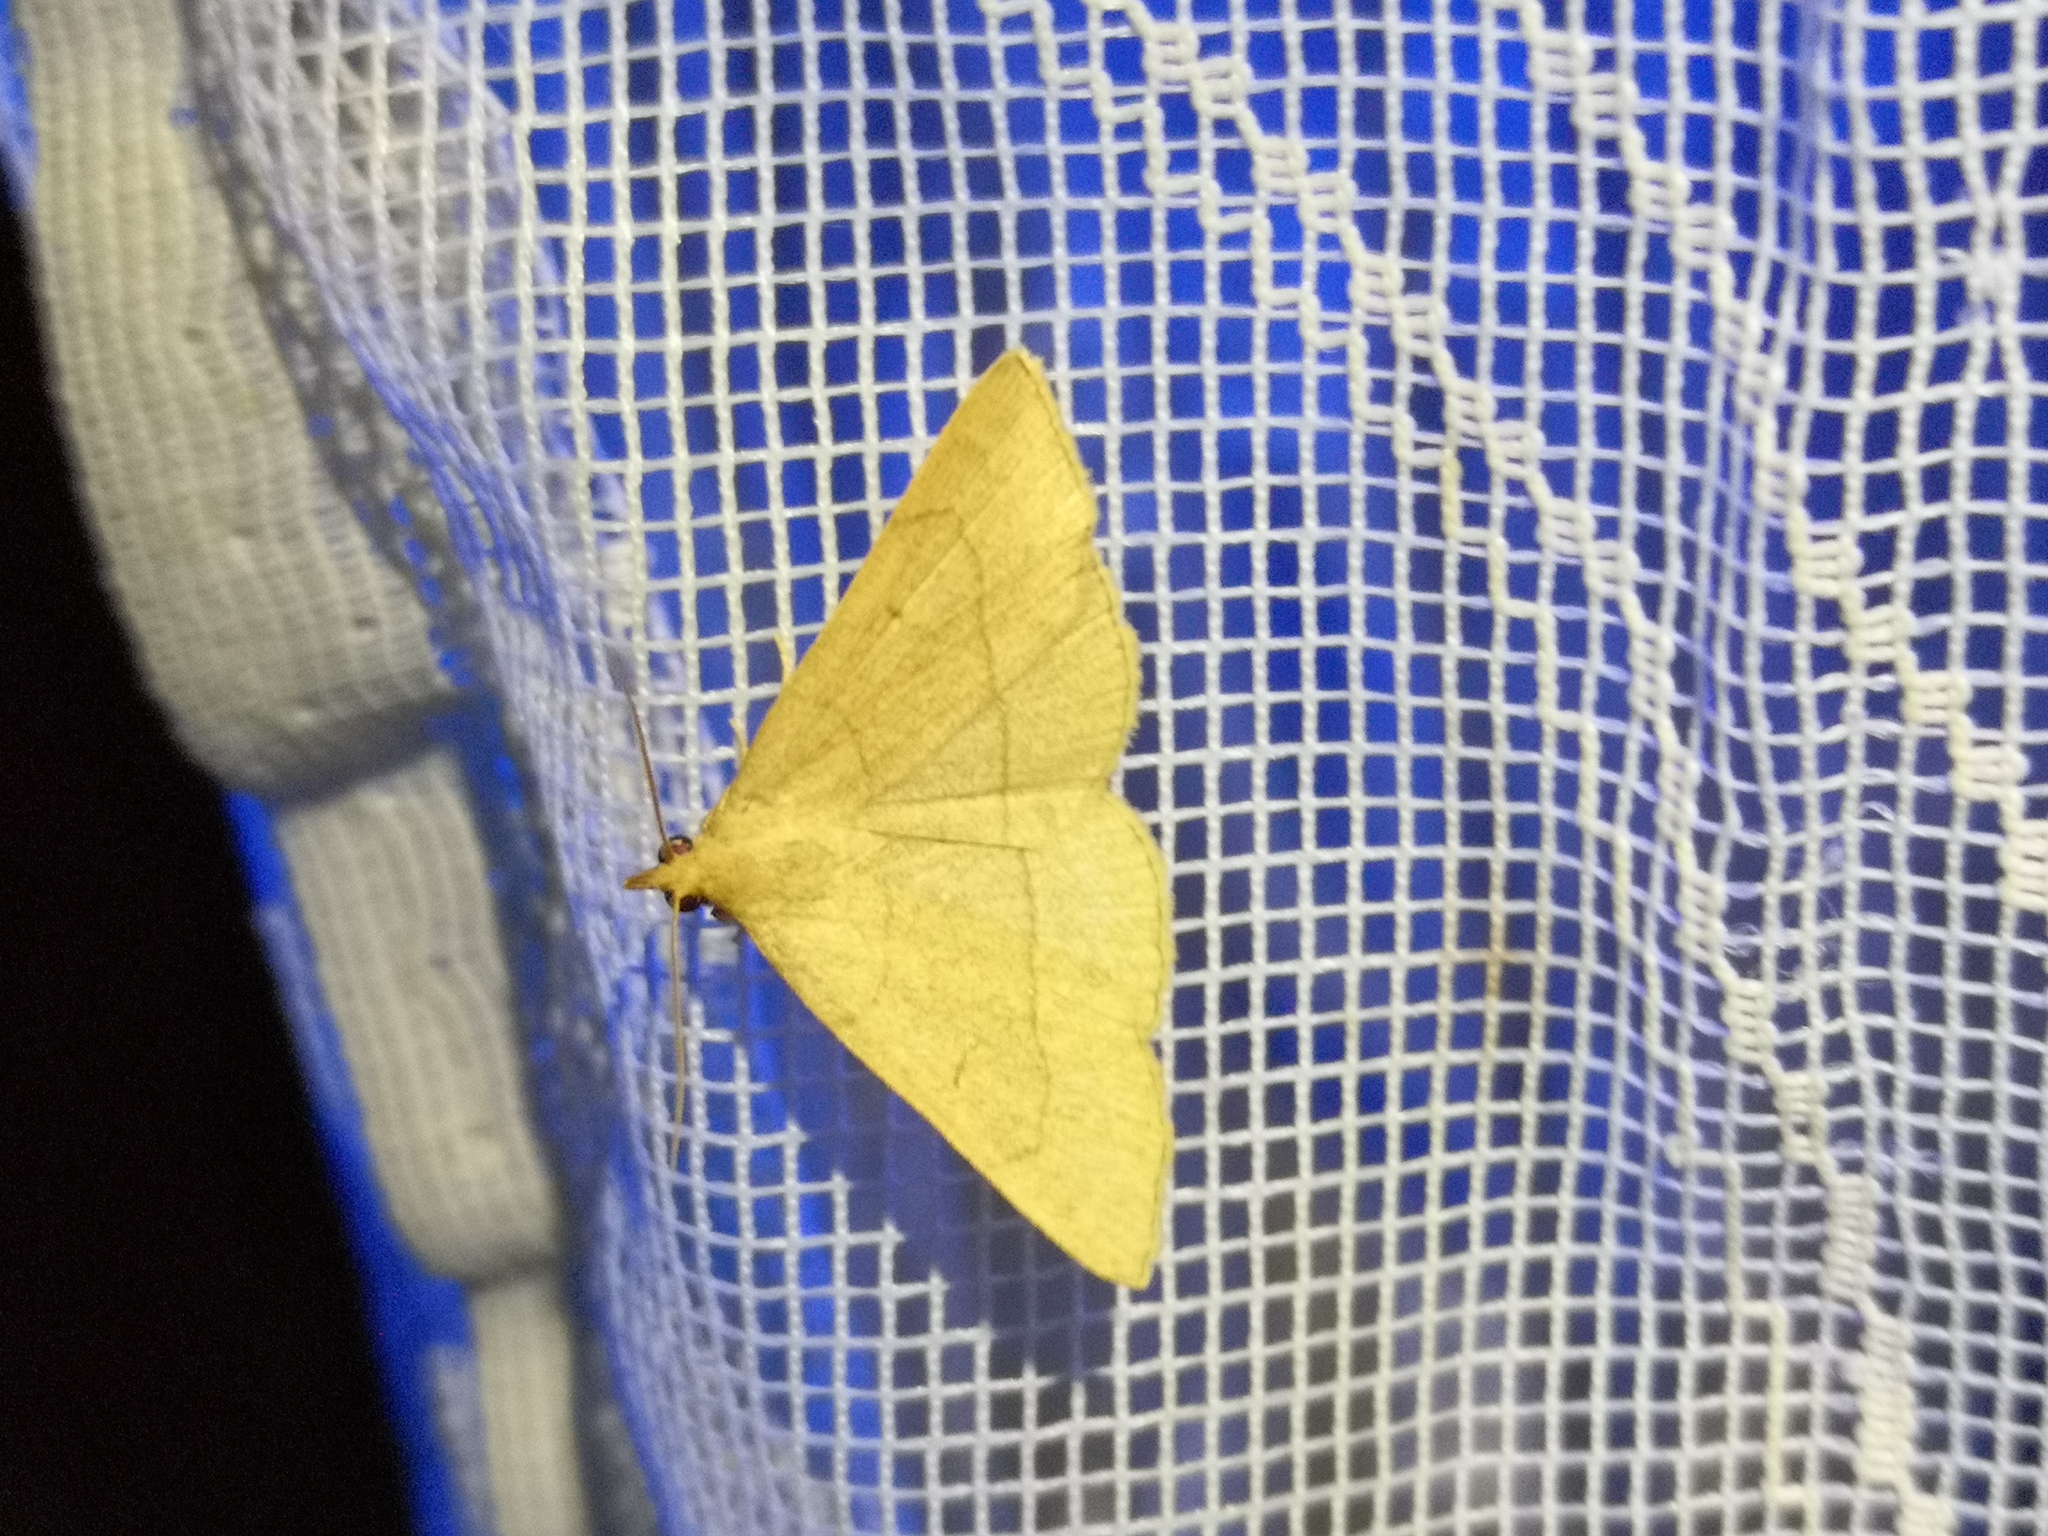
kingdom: Animalia
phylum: Arthropoda
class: Insecta
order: Lepidoptera
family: Erebidae
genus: Paracolax
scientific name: Paracolax tristalis
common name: Clay fan-foot
